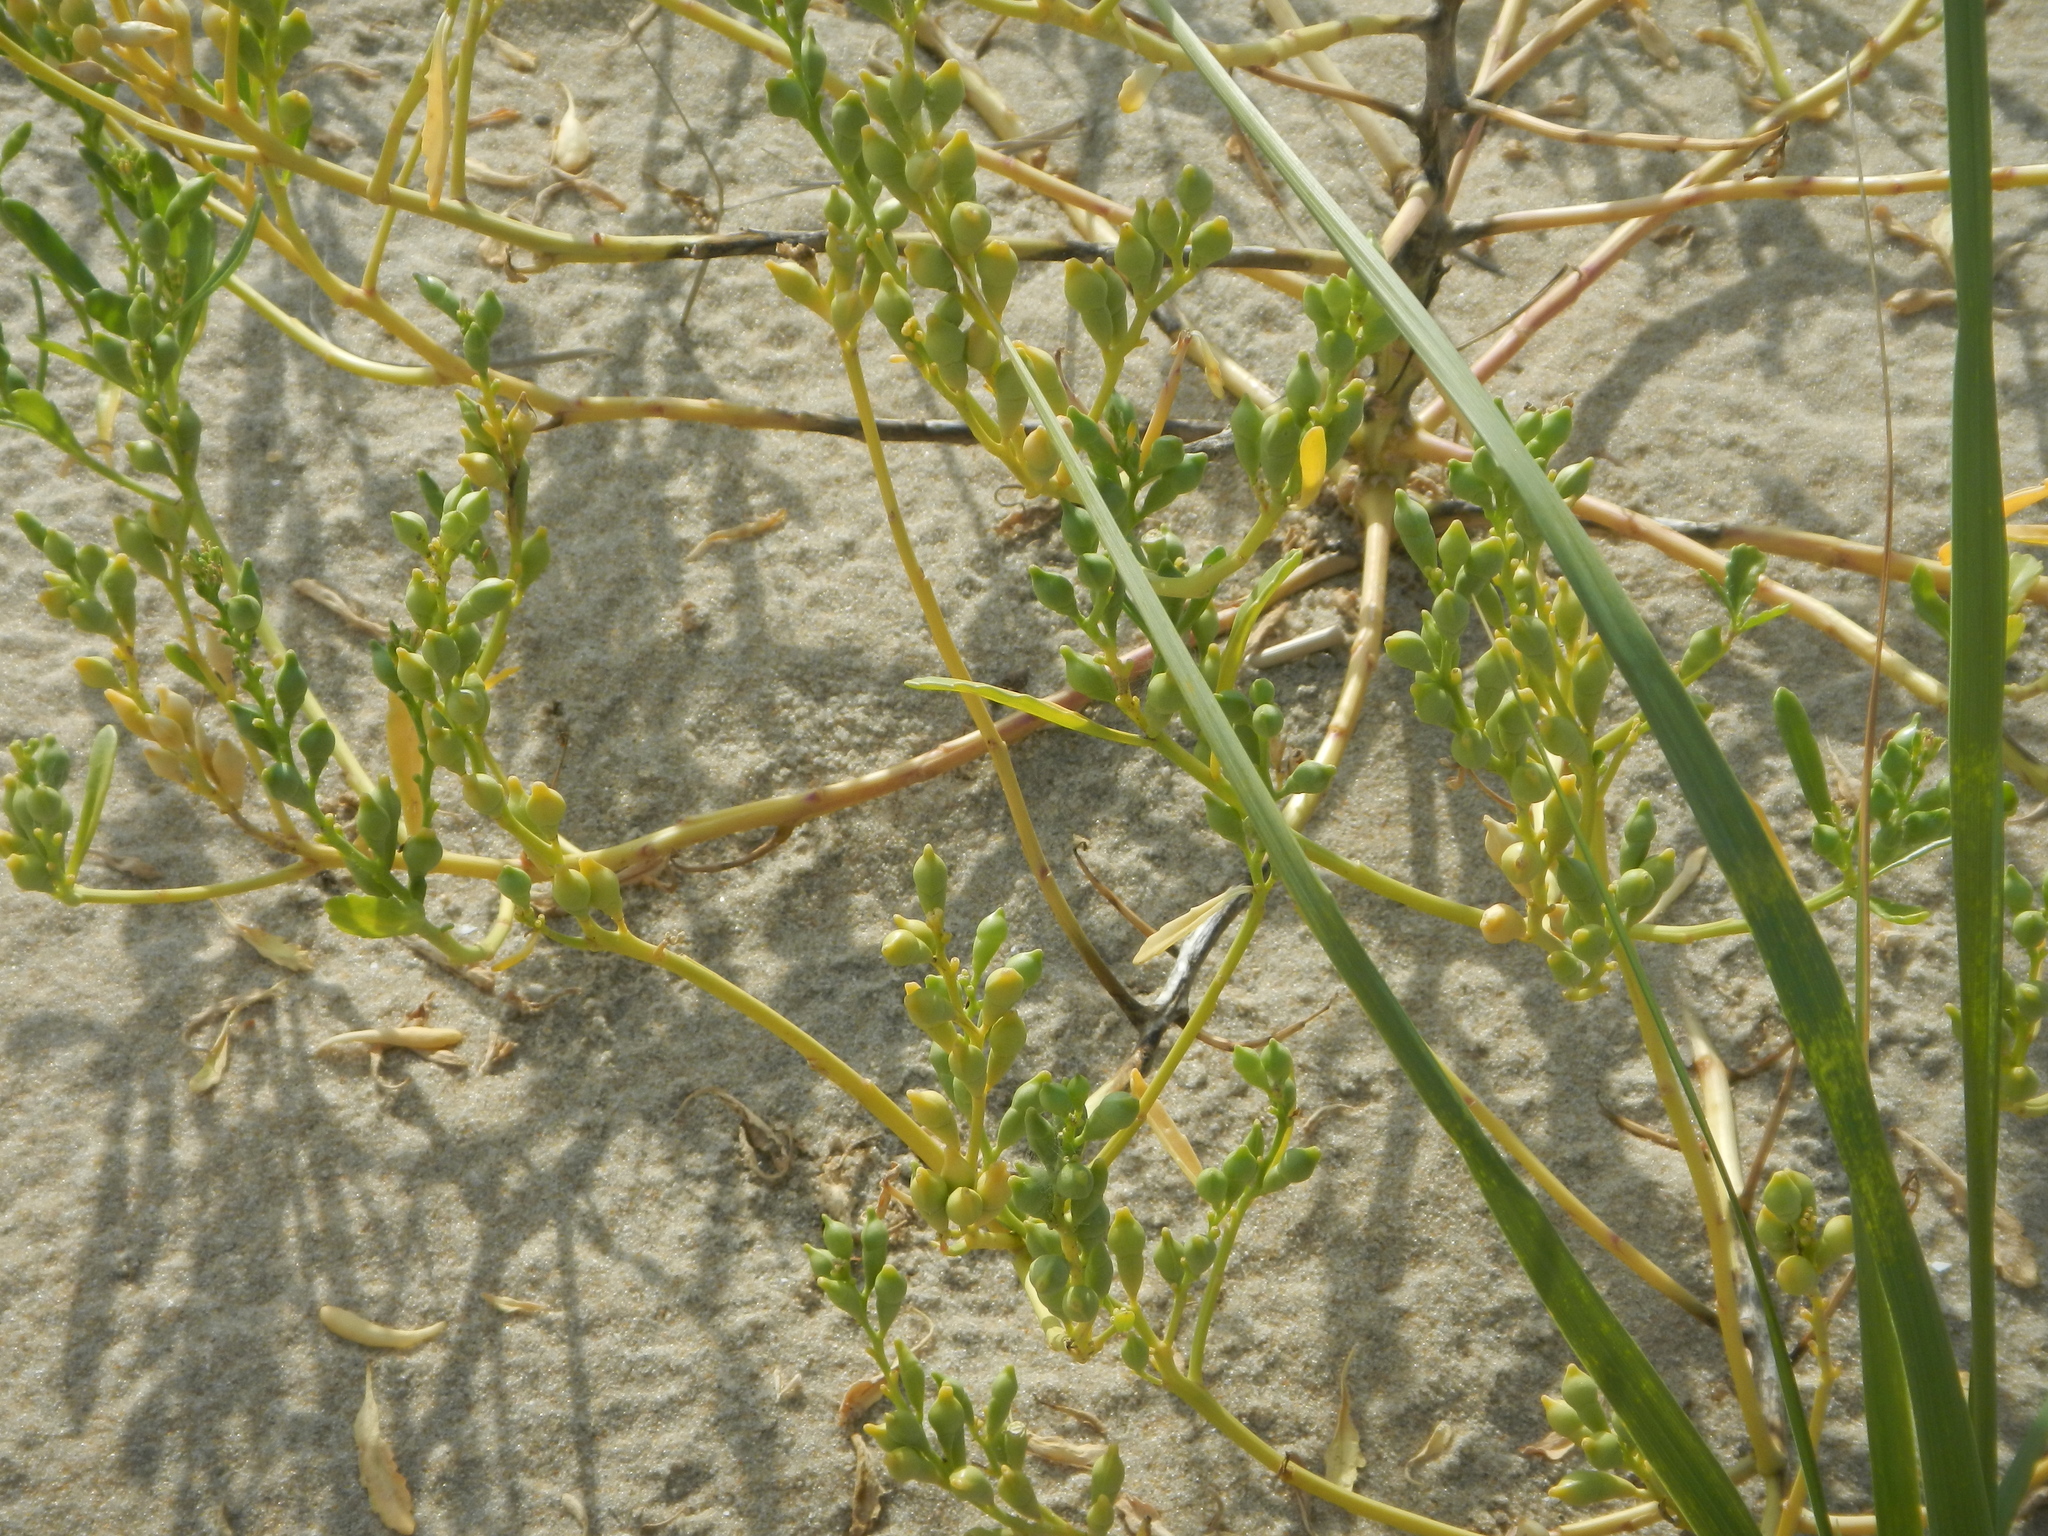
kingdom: Plantae
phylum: Tracheophyta
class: Magnoliopsida
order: Brassicales
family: Brassicaceae
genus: Cakile
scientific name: Cakile edentula
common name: American sea rocket
